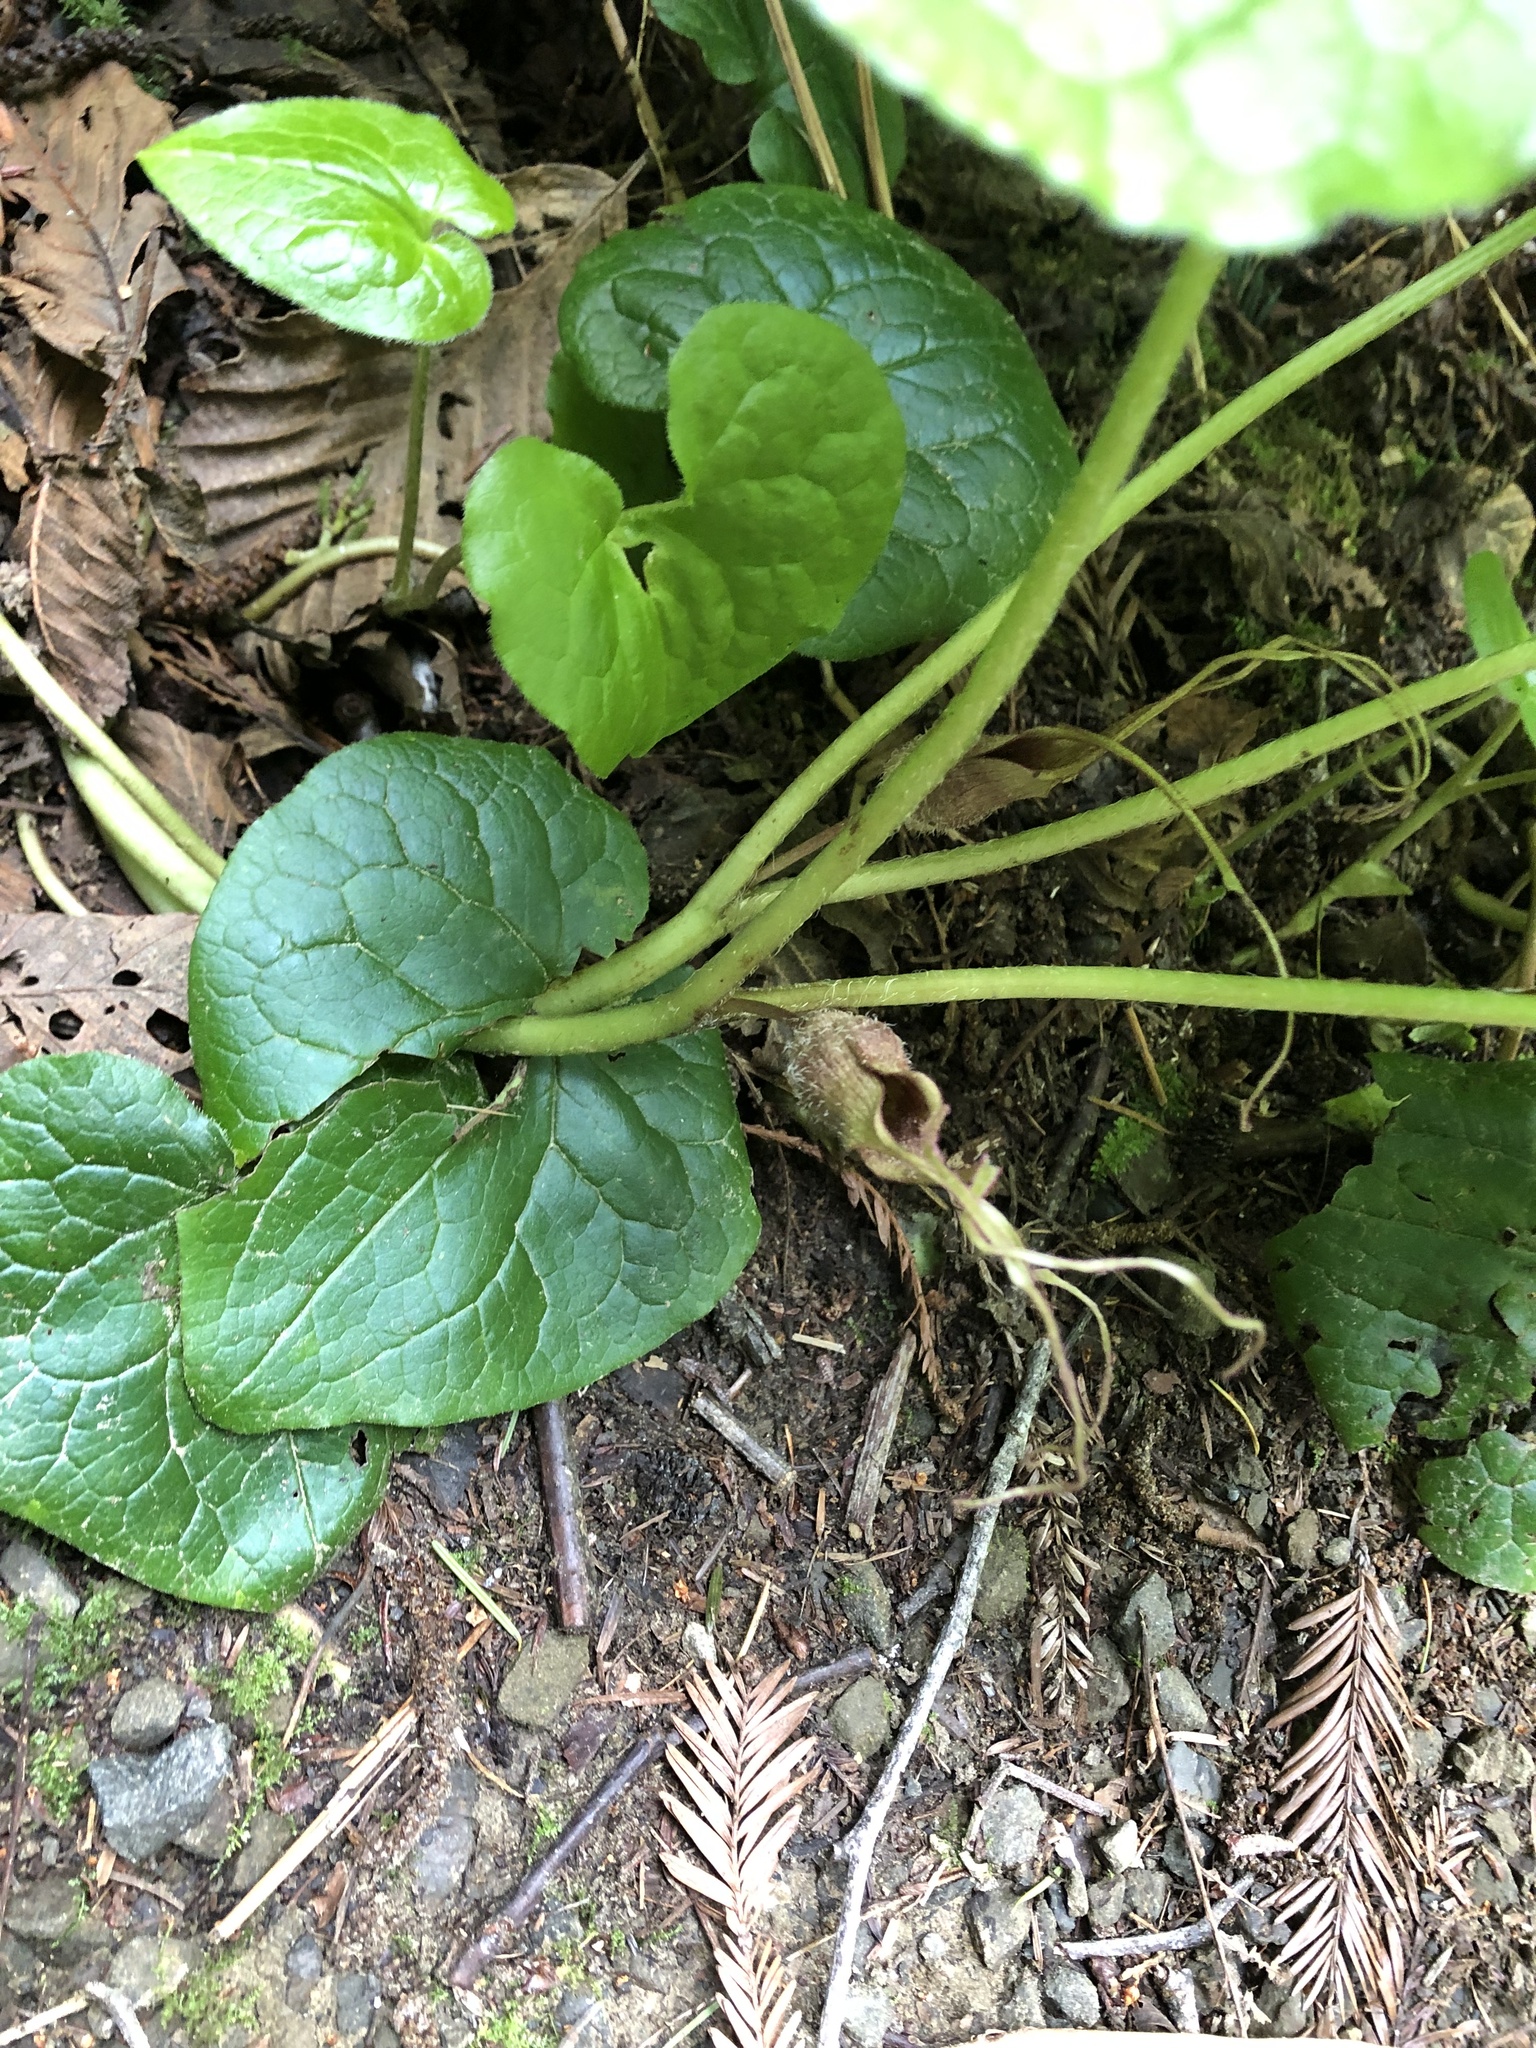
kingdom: Plantae
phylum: Tracheophyta
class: Magnoliopsida
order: Piperales
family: Aristolochiaceae
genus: Asarum
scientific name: Asarum caudatum
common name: Wild ginger
